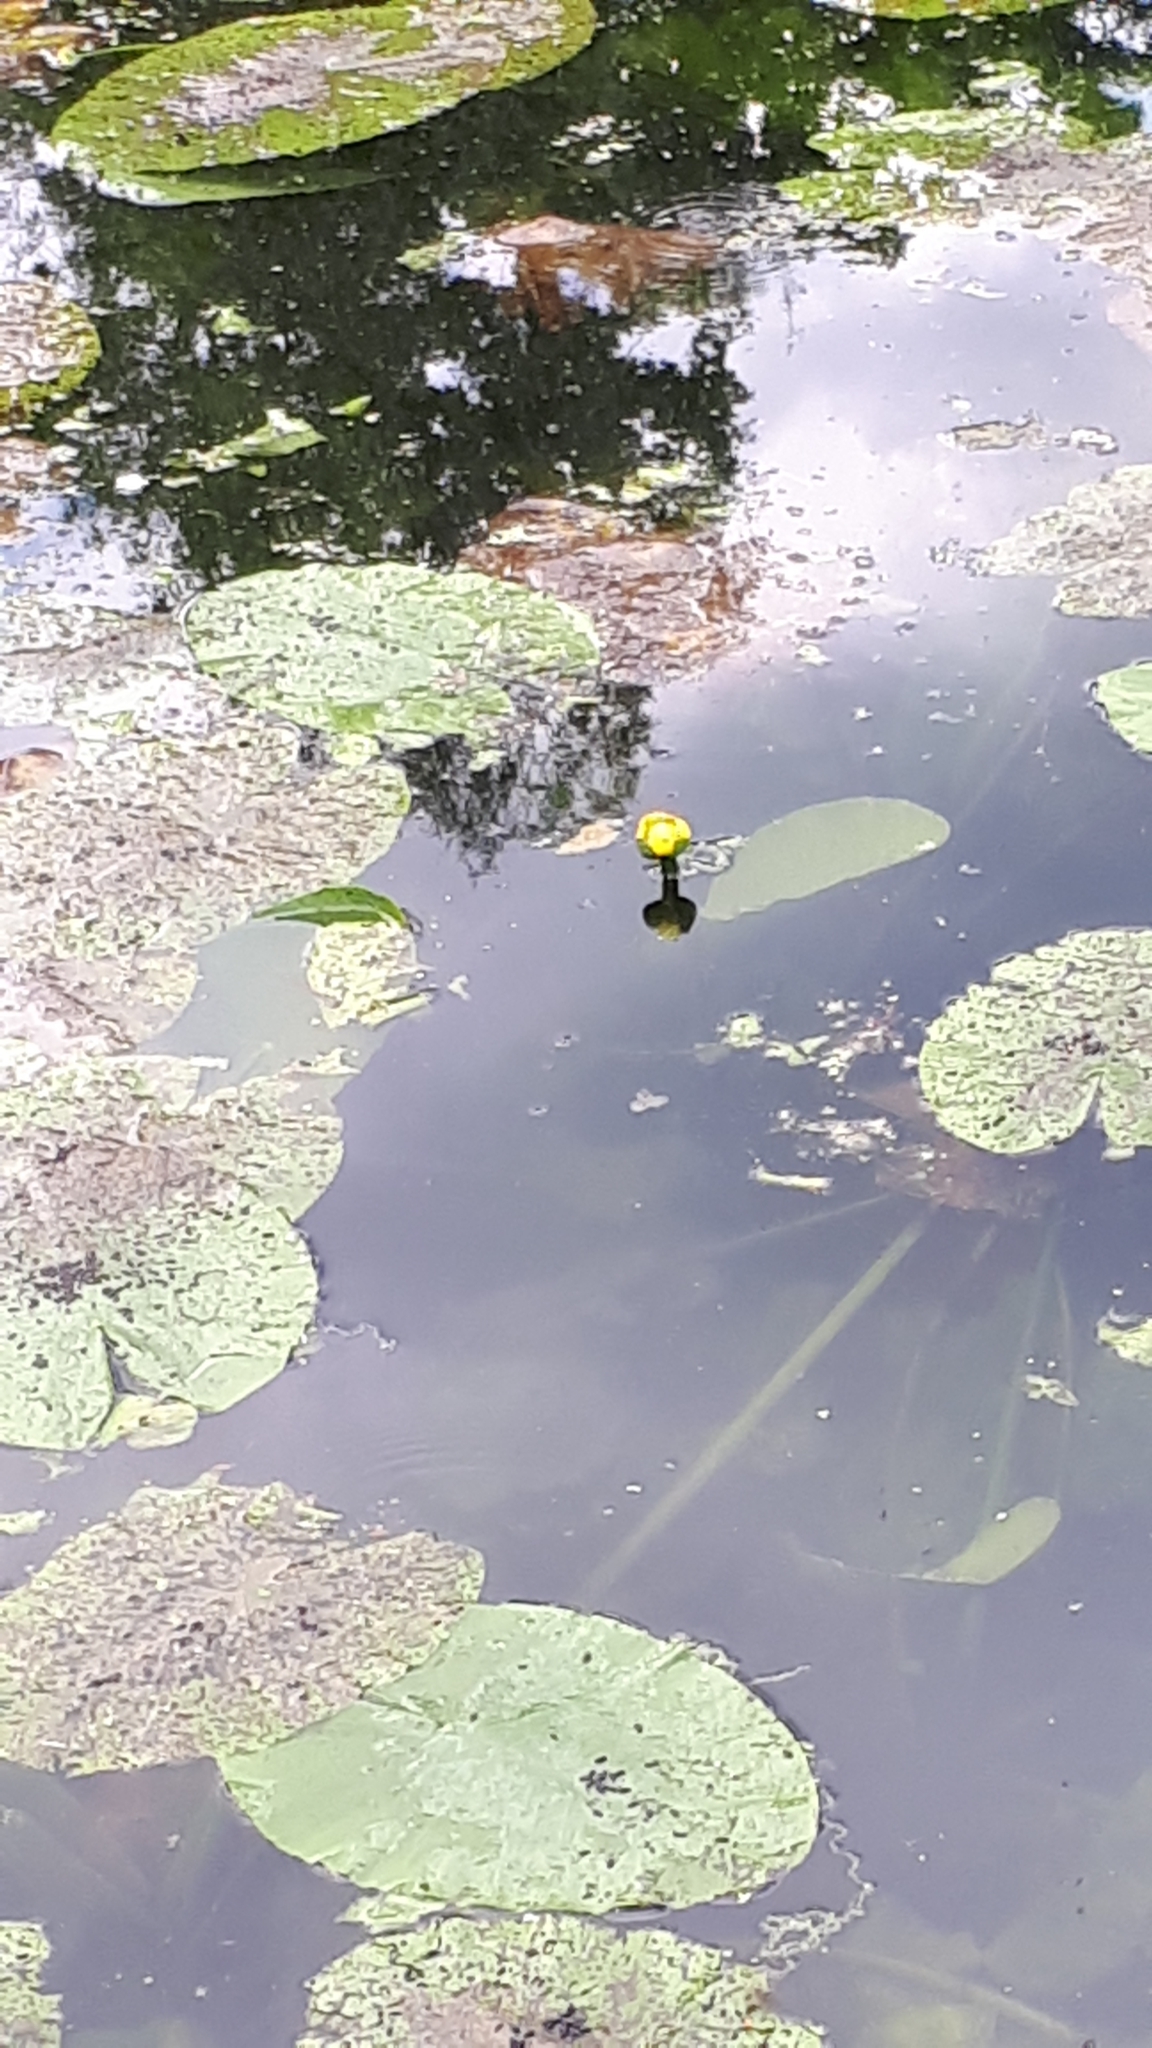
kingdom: Plantae
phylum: Tracheophyta
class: Magnoliopsida
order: Nymphaeales
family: Nymphaeaceae
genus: Nuphar
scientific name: Nuphar lutea
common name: Yellow water-lily
